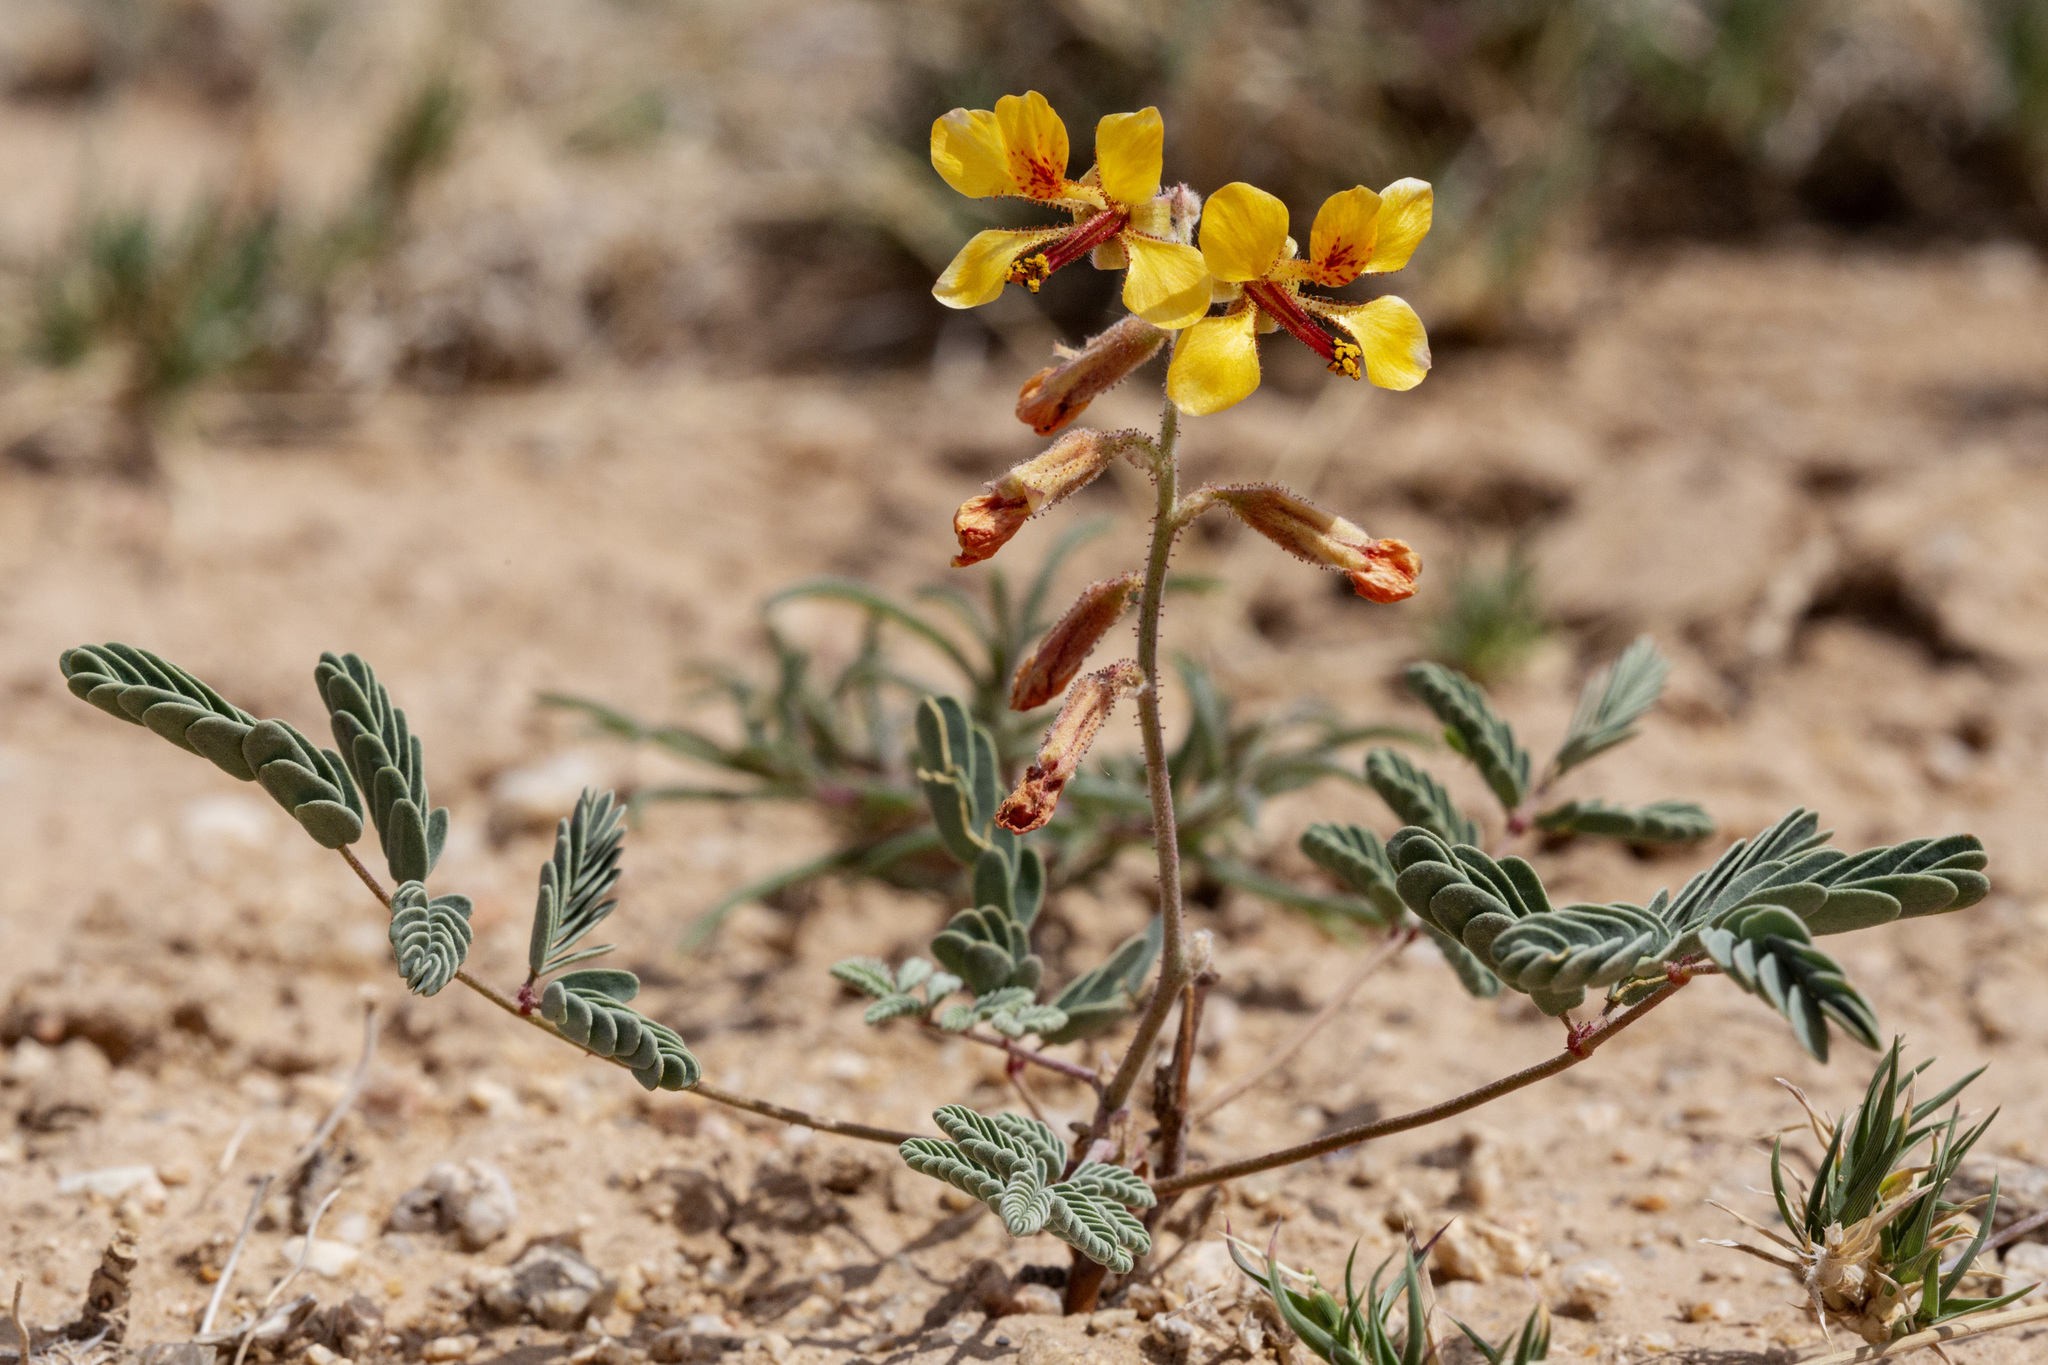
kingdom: Plantae
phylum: Tracheophyta
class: Magnoliopsida
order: Fabales
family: Fabaceae
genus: Hoffmannseggia
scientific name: Hoffmannseggia glauca
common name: Pignut
